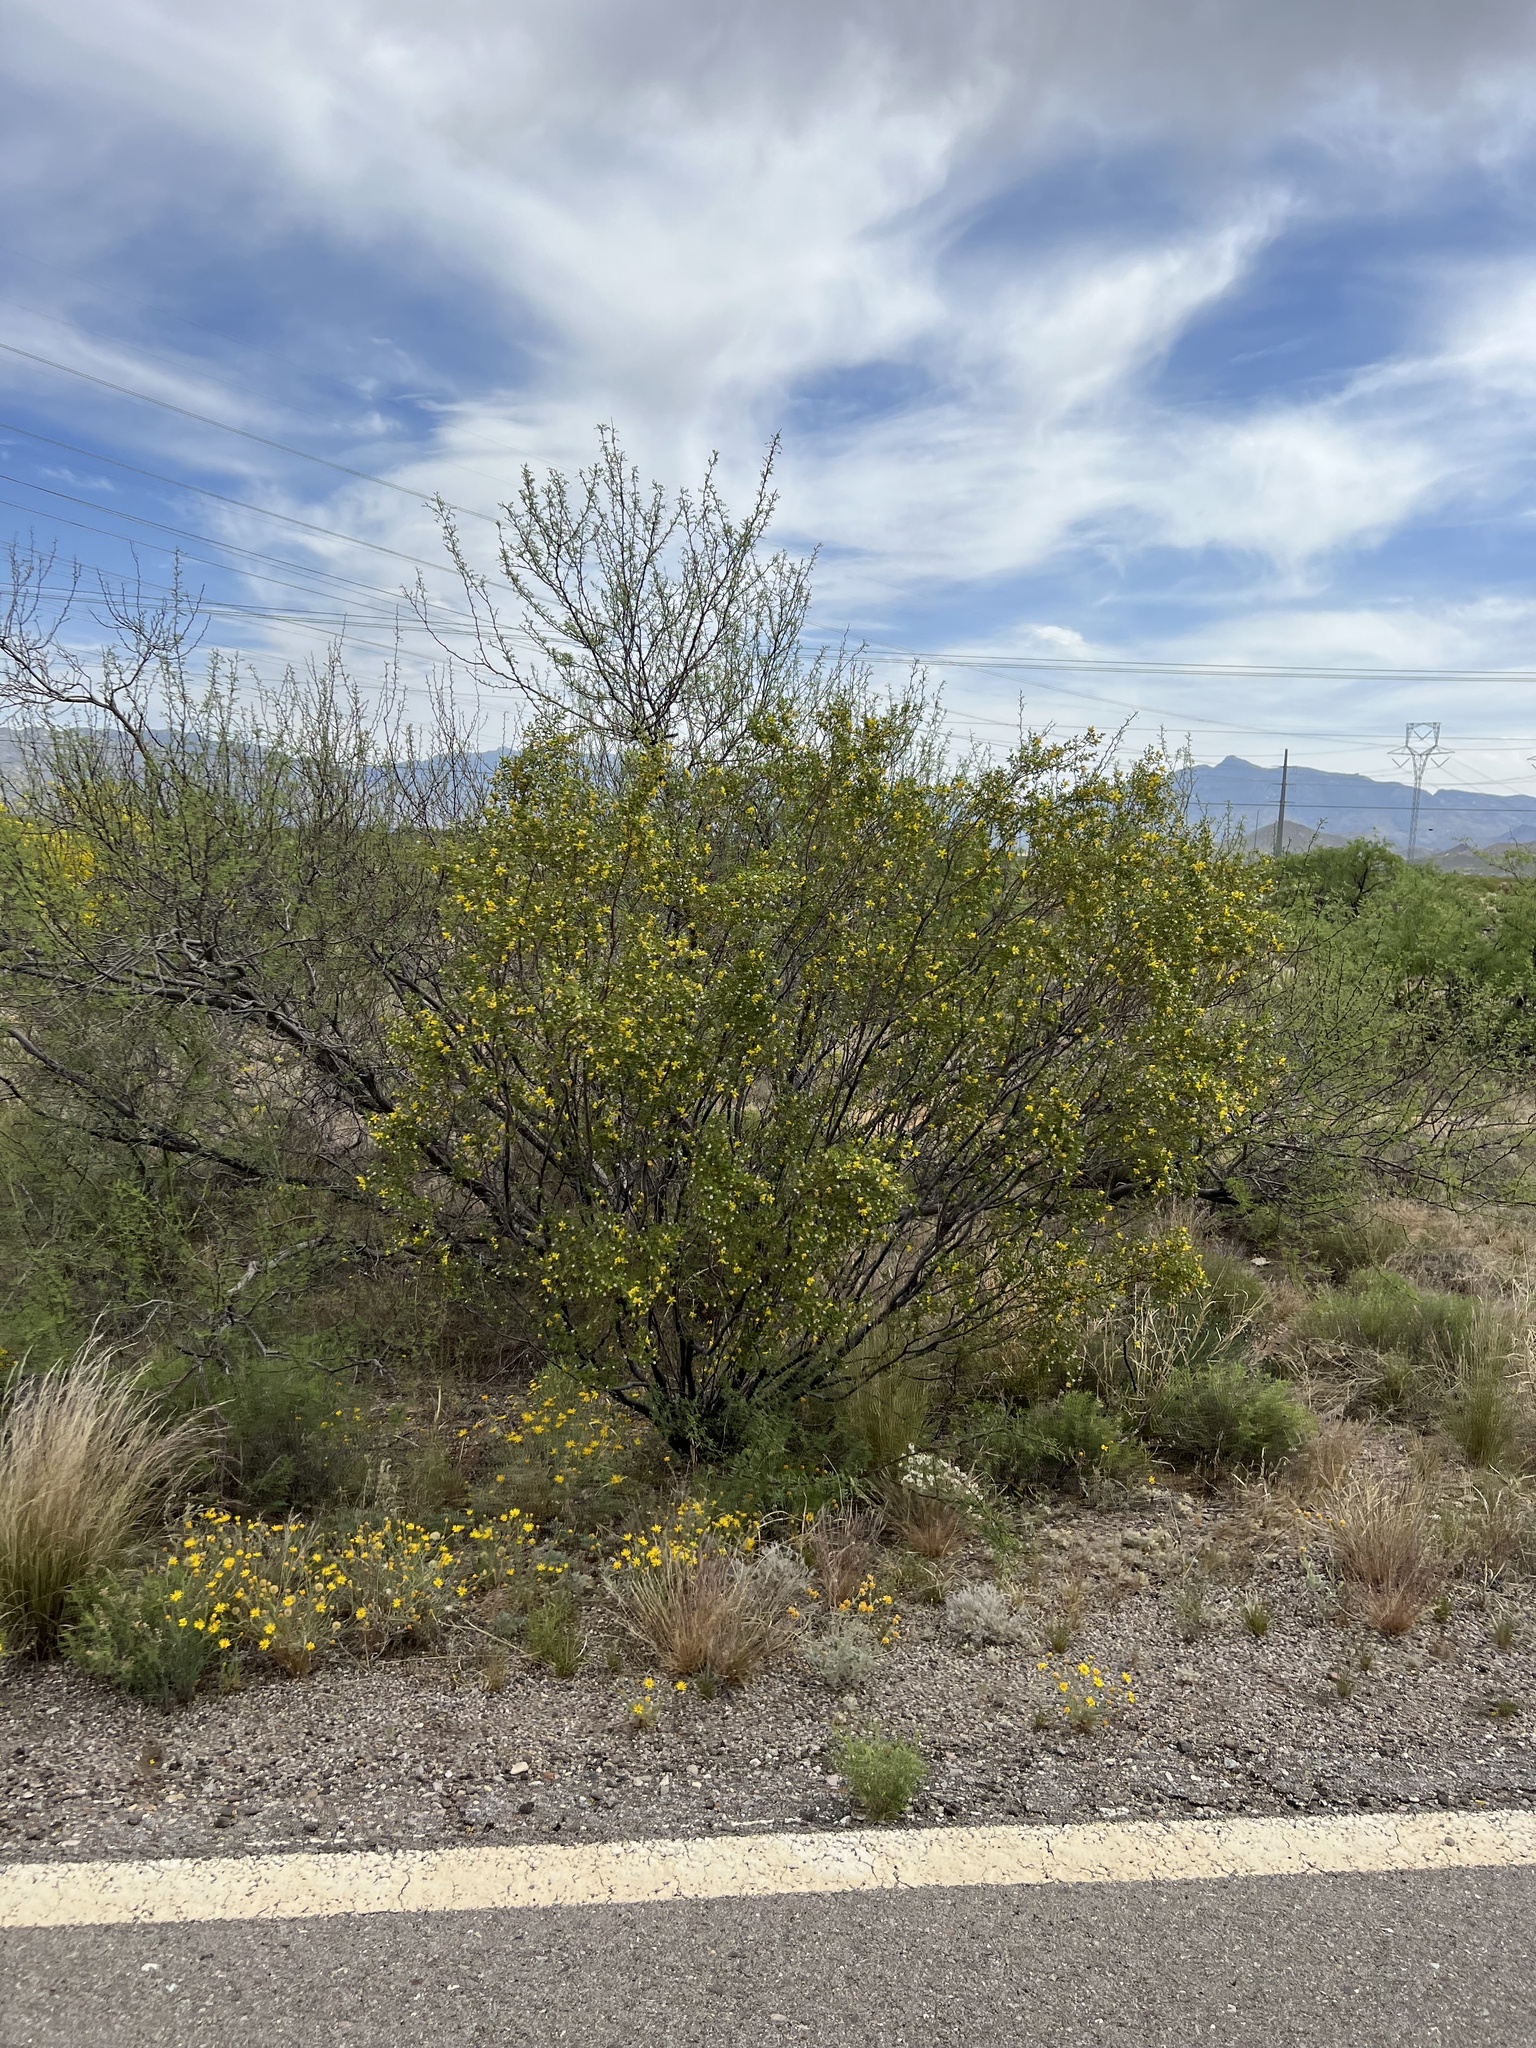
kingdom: Plantae
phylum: Tracheophyta
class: Magnoliopsida
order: Zygophyllales
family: Zygophyllaceae
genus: Larrea
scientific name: Larrea tridentata
